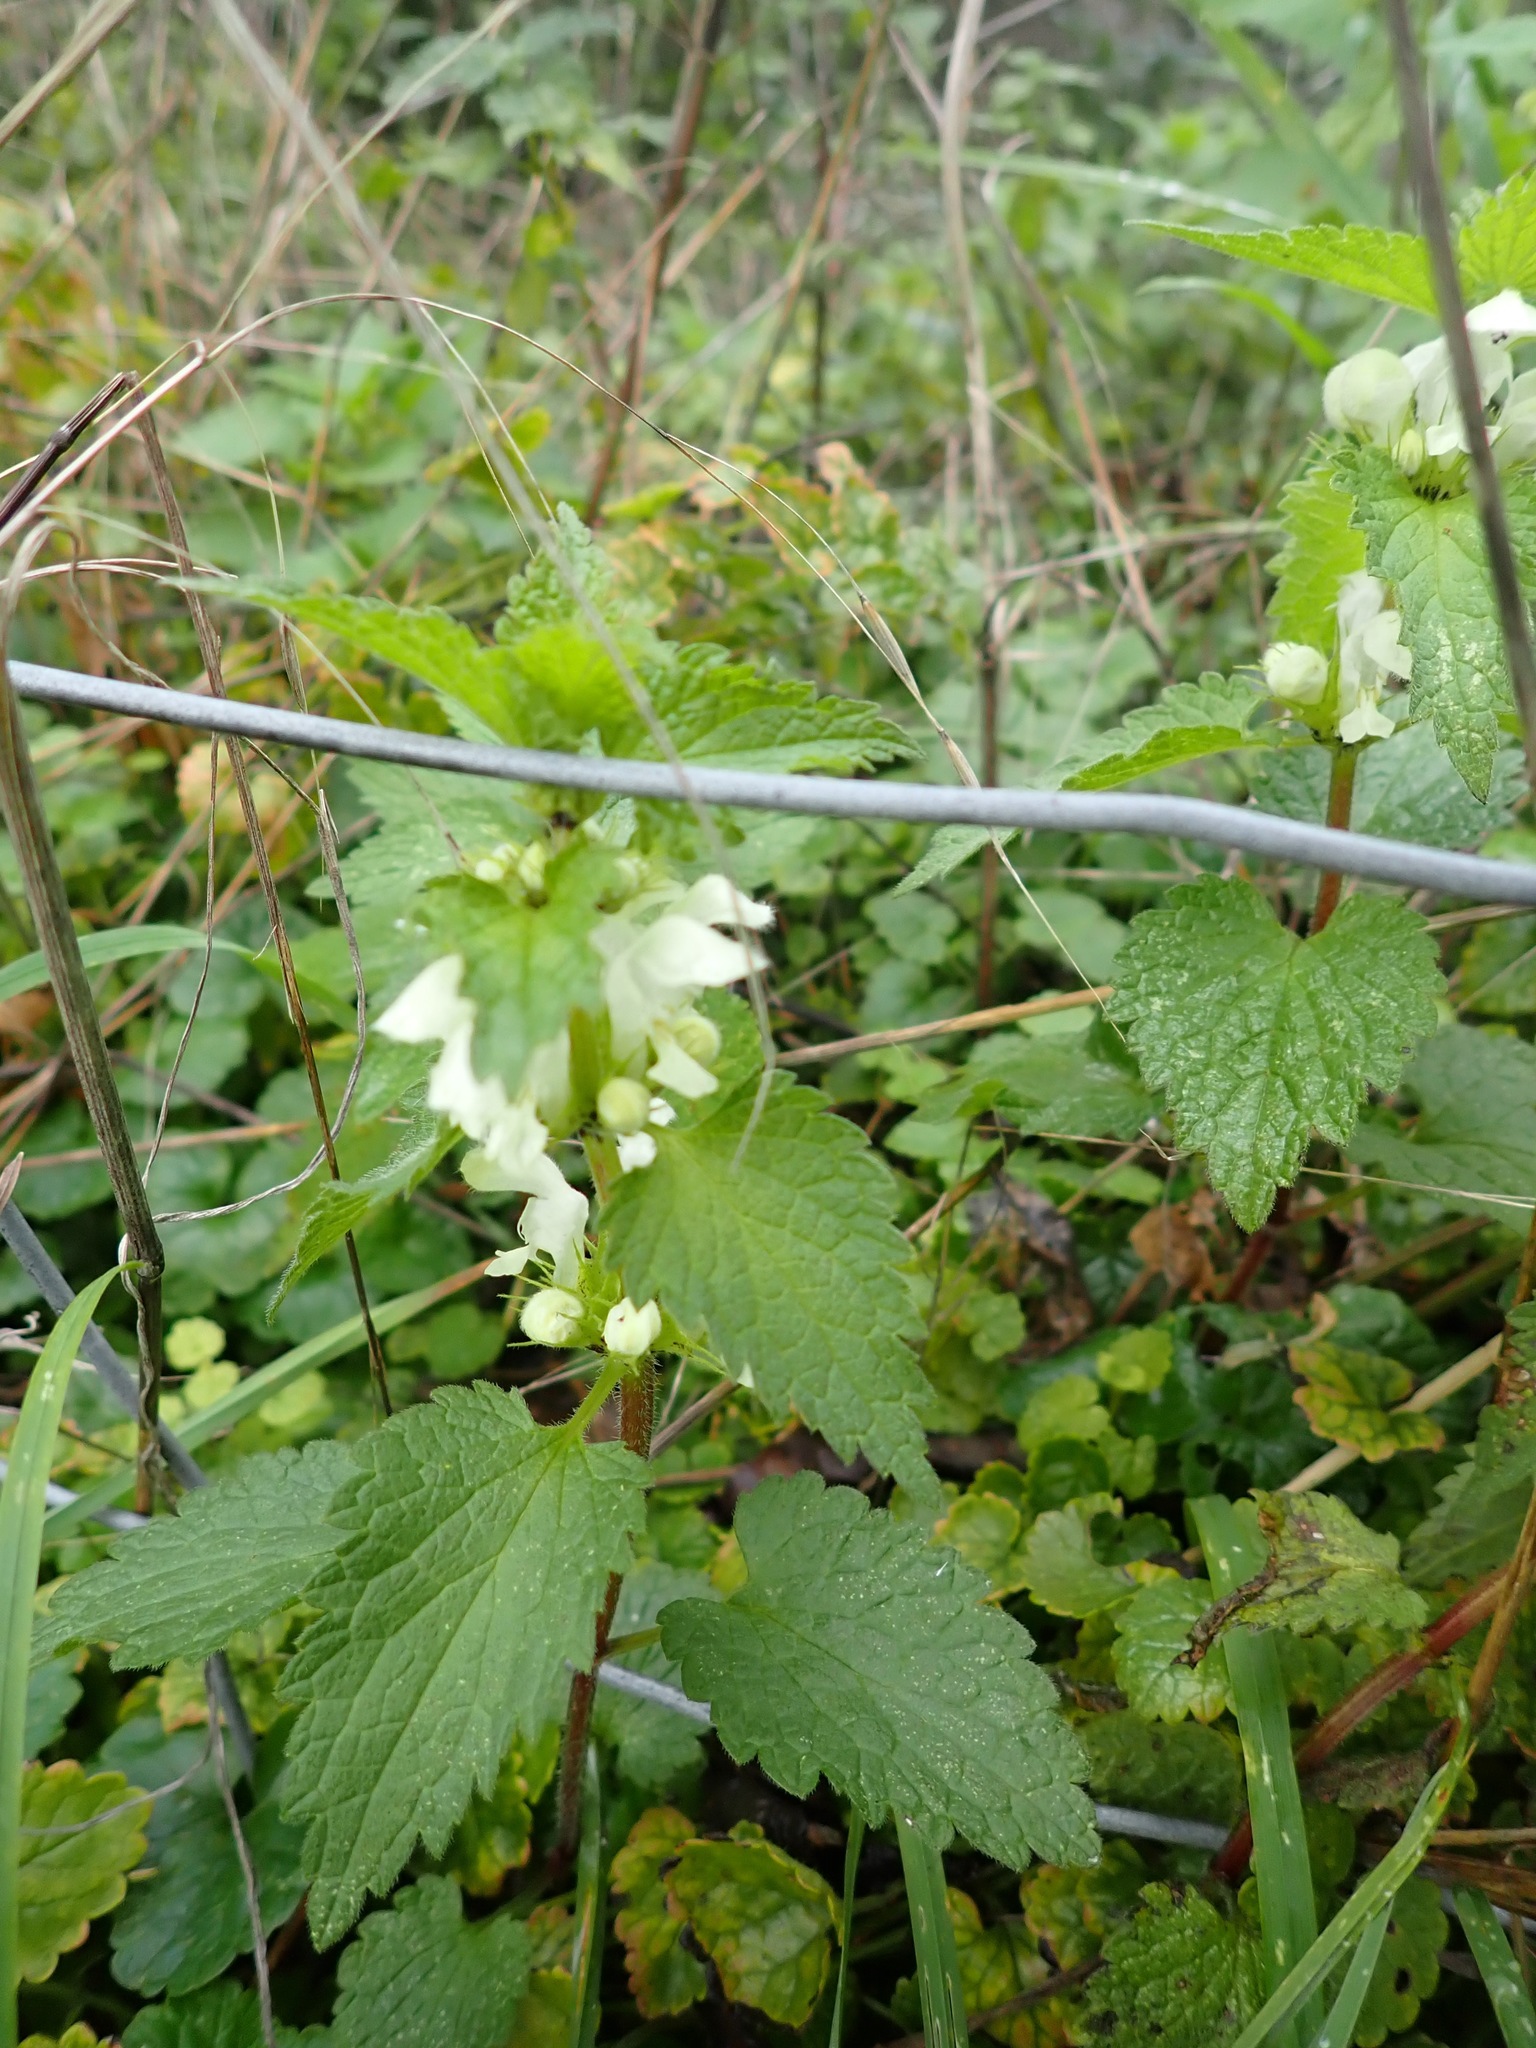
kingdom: Plantae
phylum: Tracheophyta
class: Magnoliopsida
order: Lamiales
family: Lamiaceae
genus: Lamium
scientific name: Lamium album
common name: White dead-nettle
